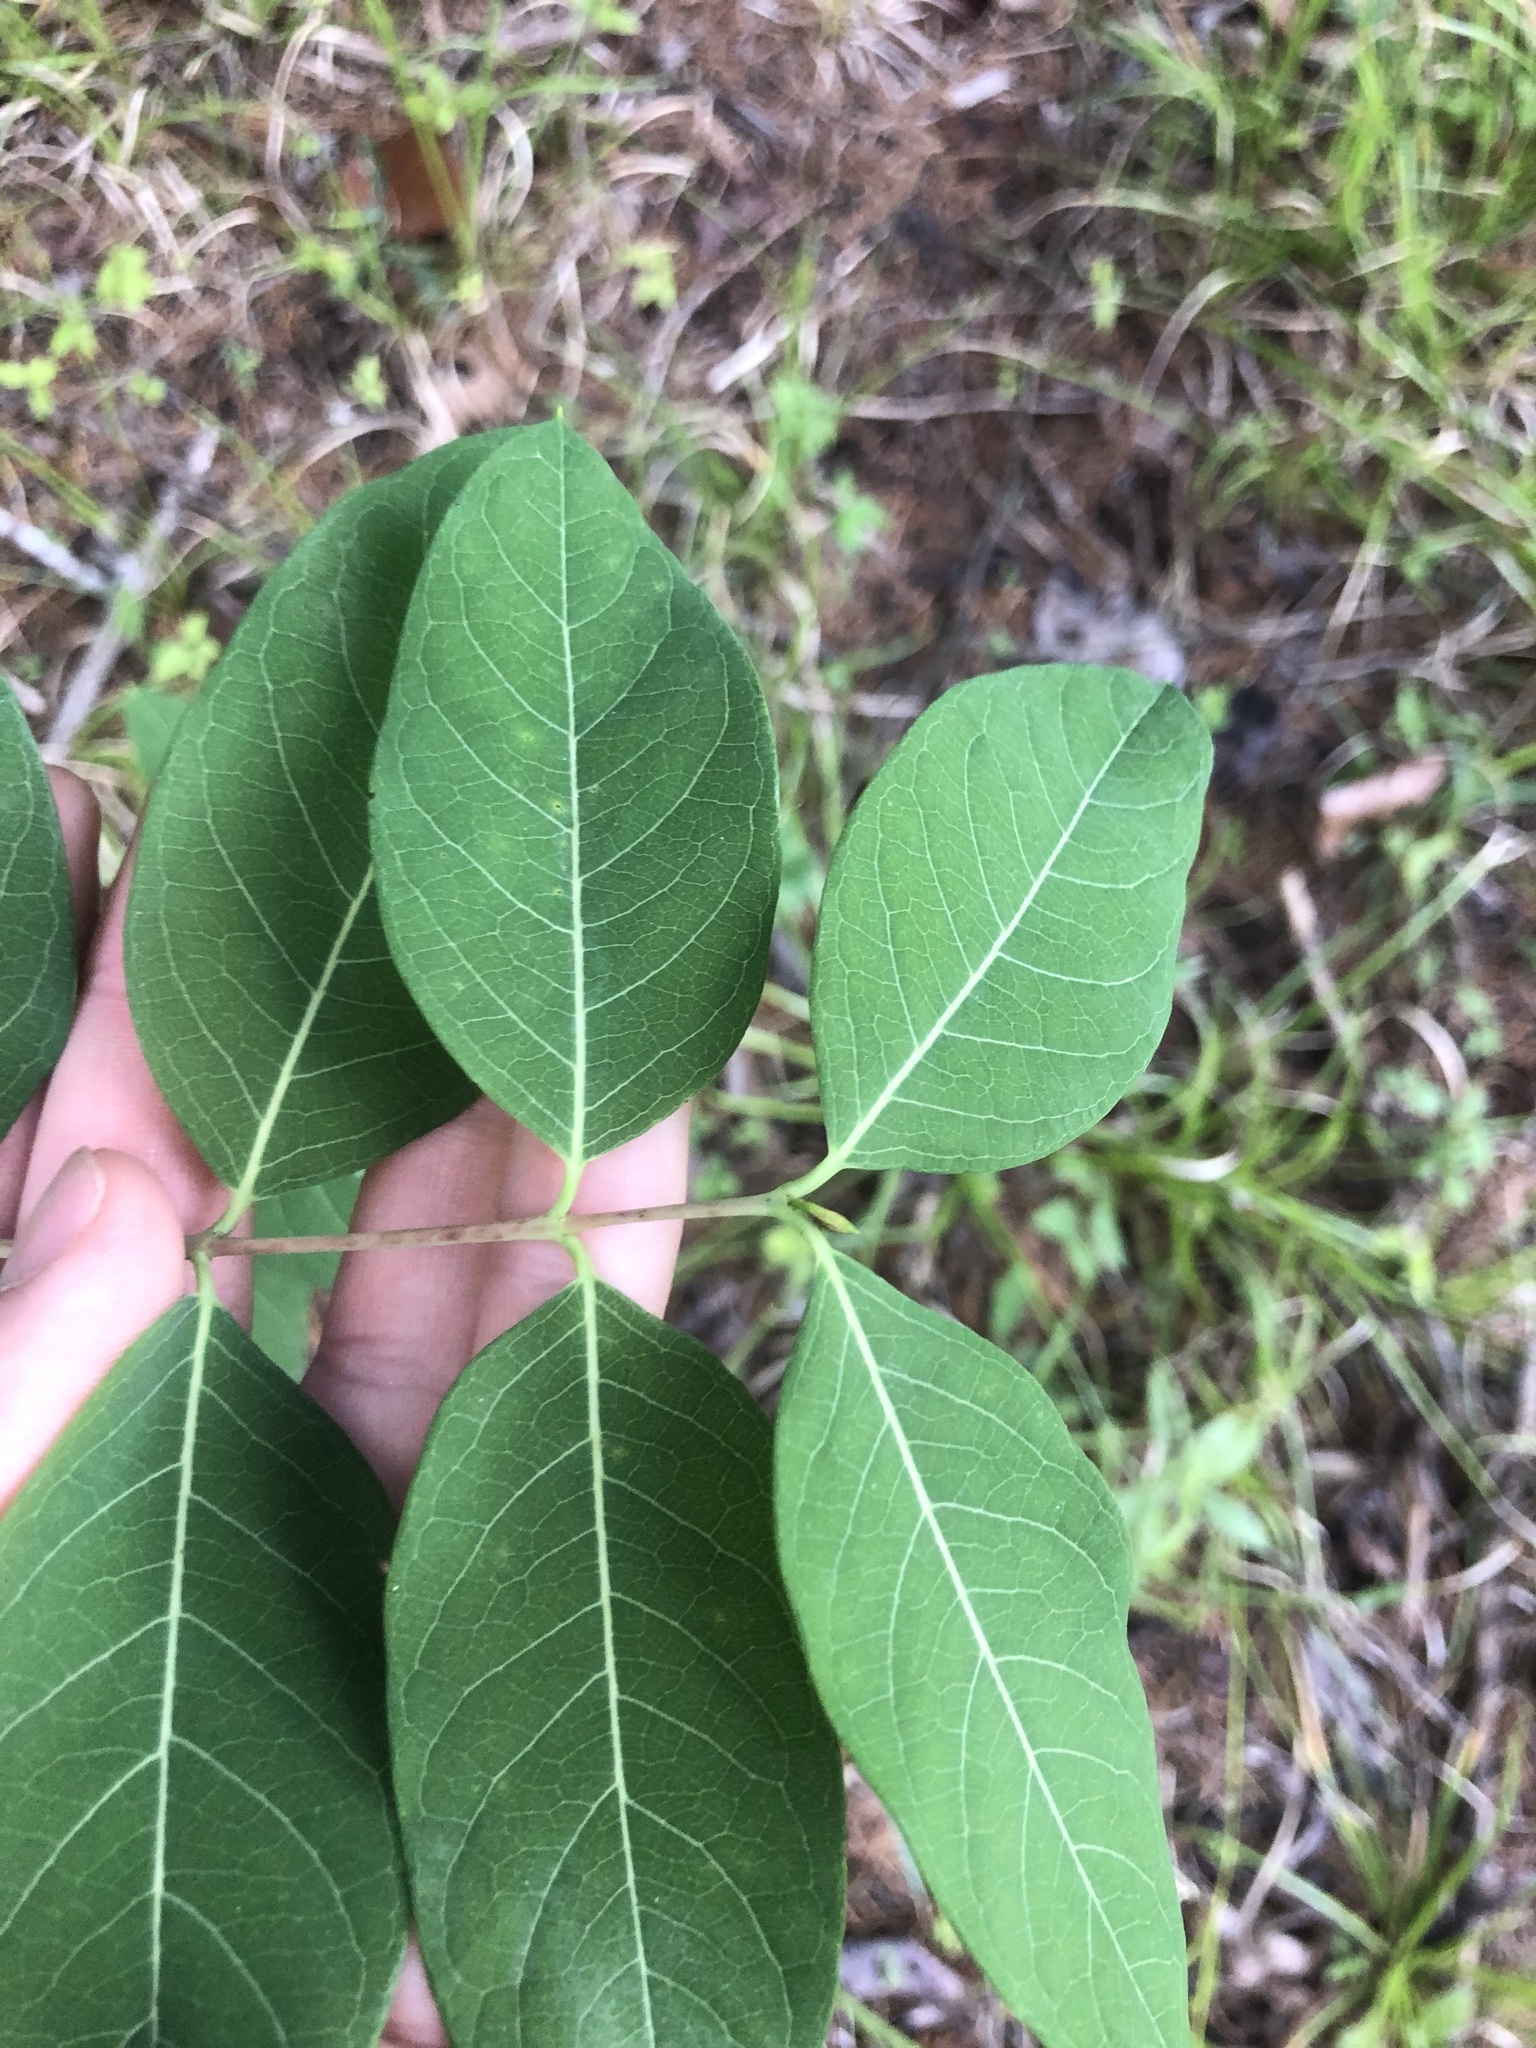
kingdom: Plantae
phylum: Tracheophyta
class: Magnoliopsida
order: Gentianales
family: Apocynaceae
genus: Apocynum
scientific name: Apocynum cannabinum
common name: Hemp dogbane
